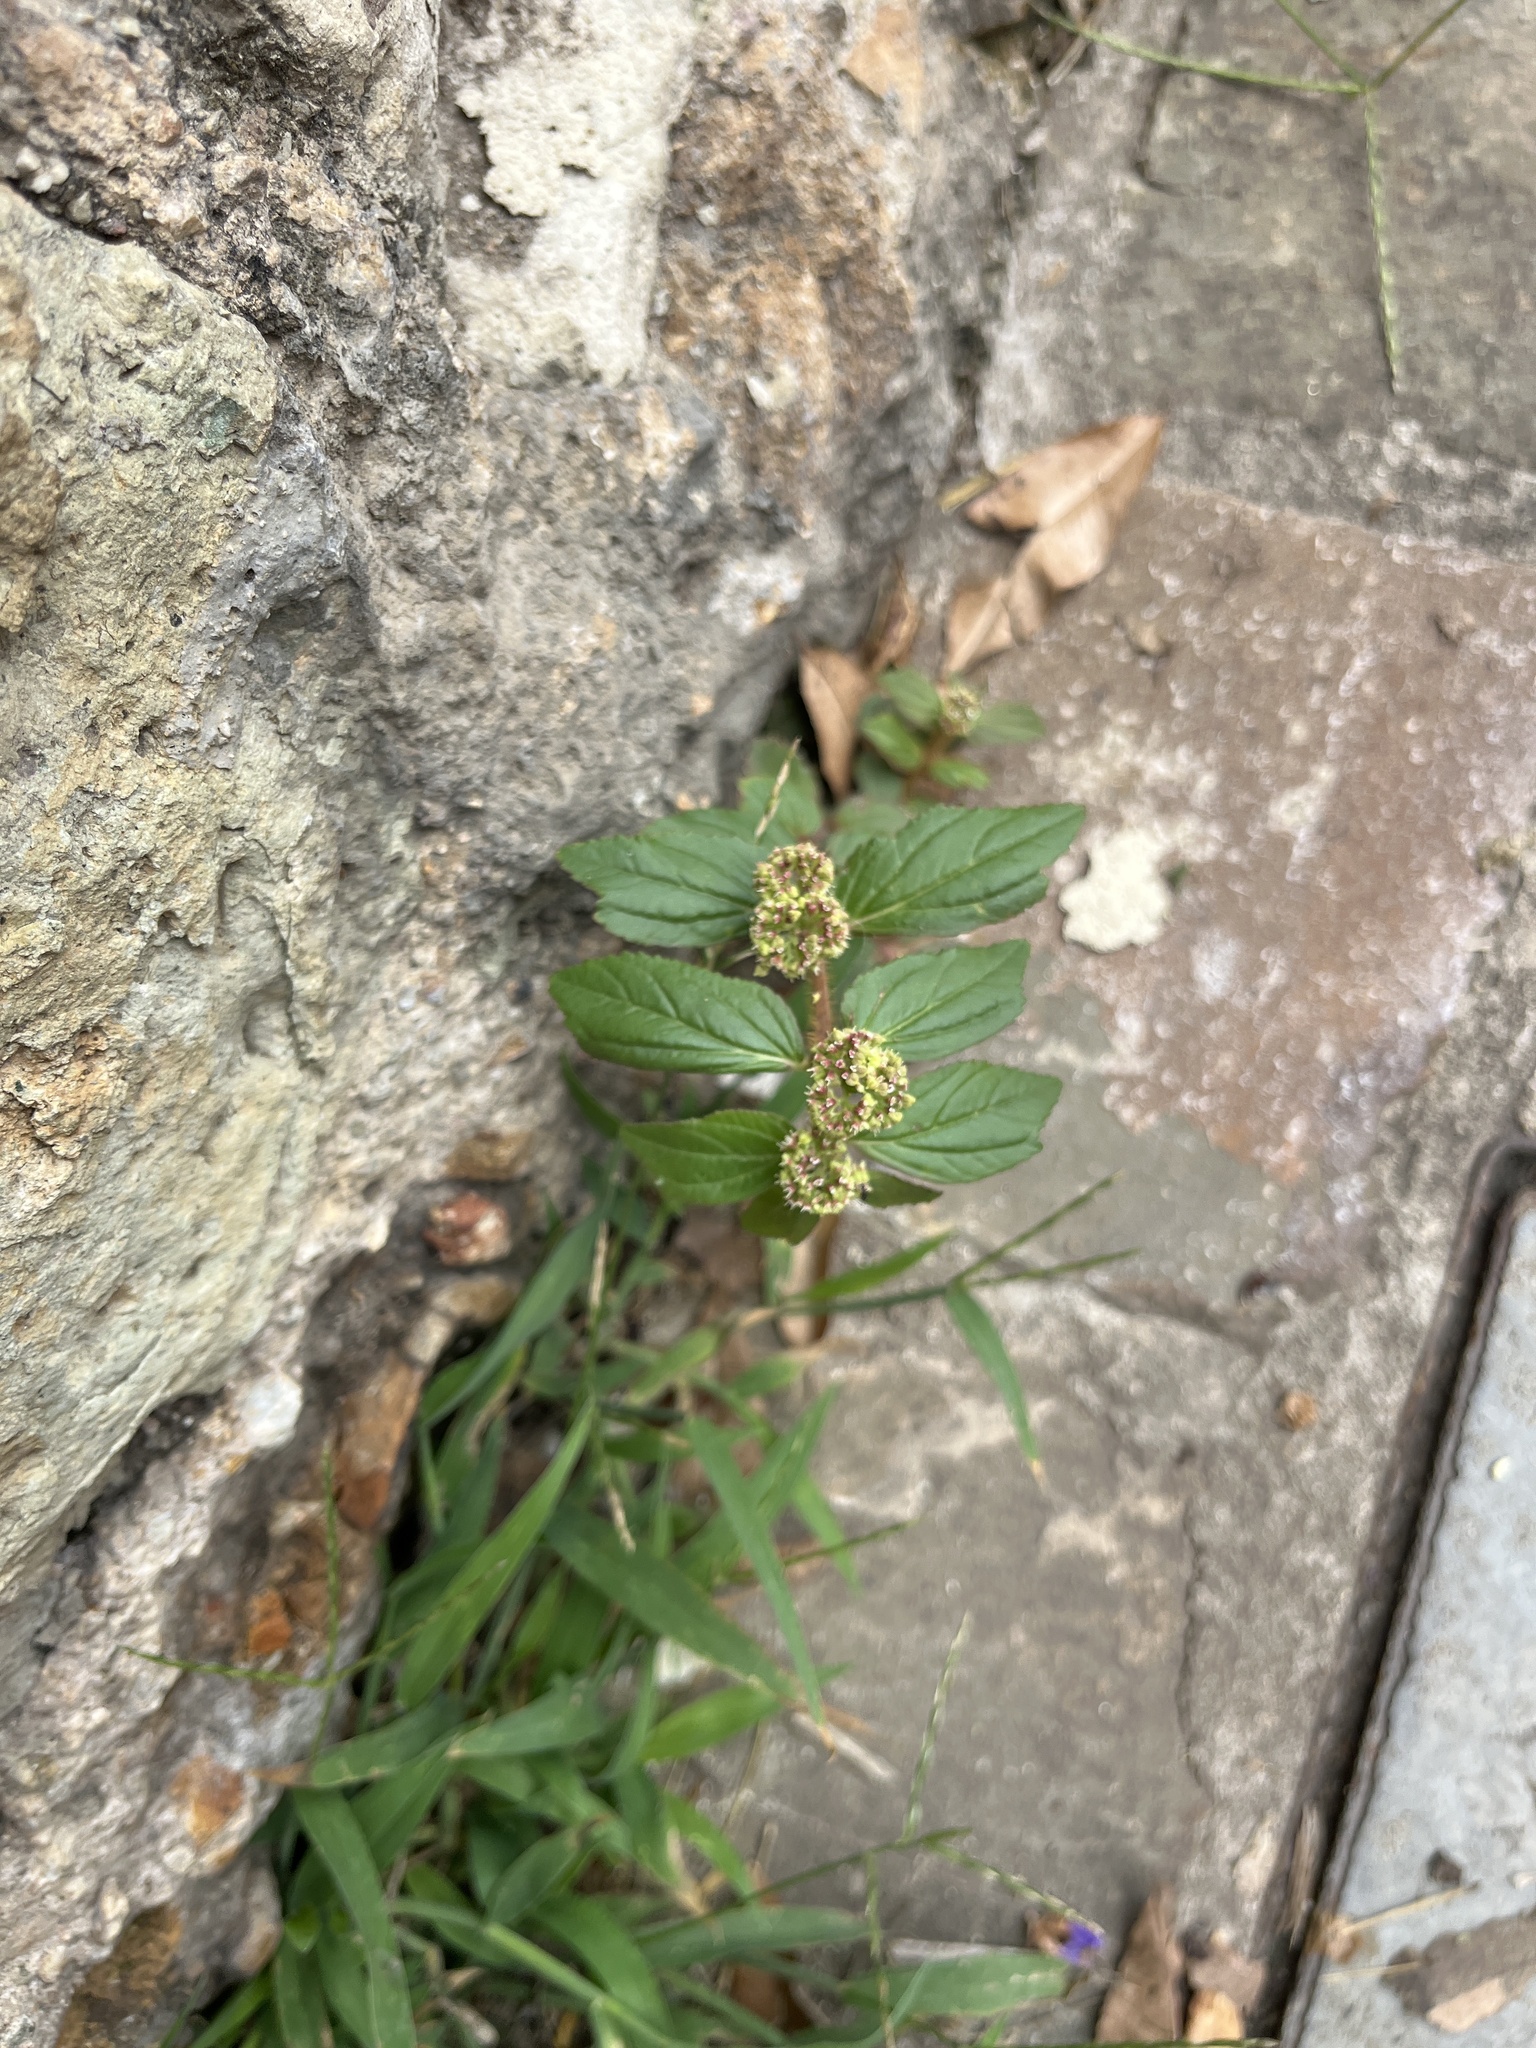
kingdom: Plantae
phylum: Tracheophyta
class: Magnoliopsida
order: Malpighiales
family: Euphorbiaceae
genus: Euphorbia
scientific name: Euphorbia hirta
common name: Pillpod sandmat
